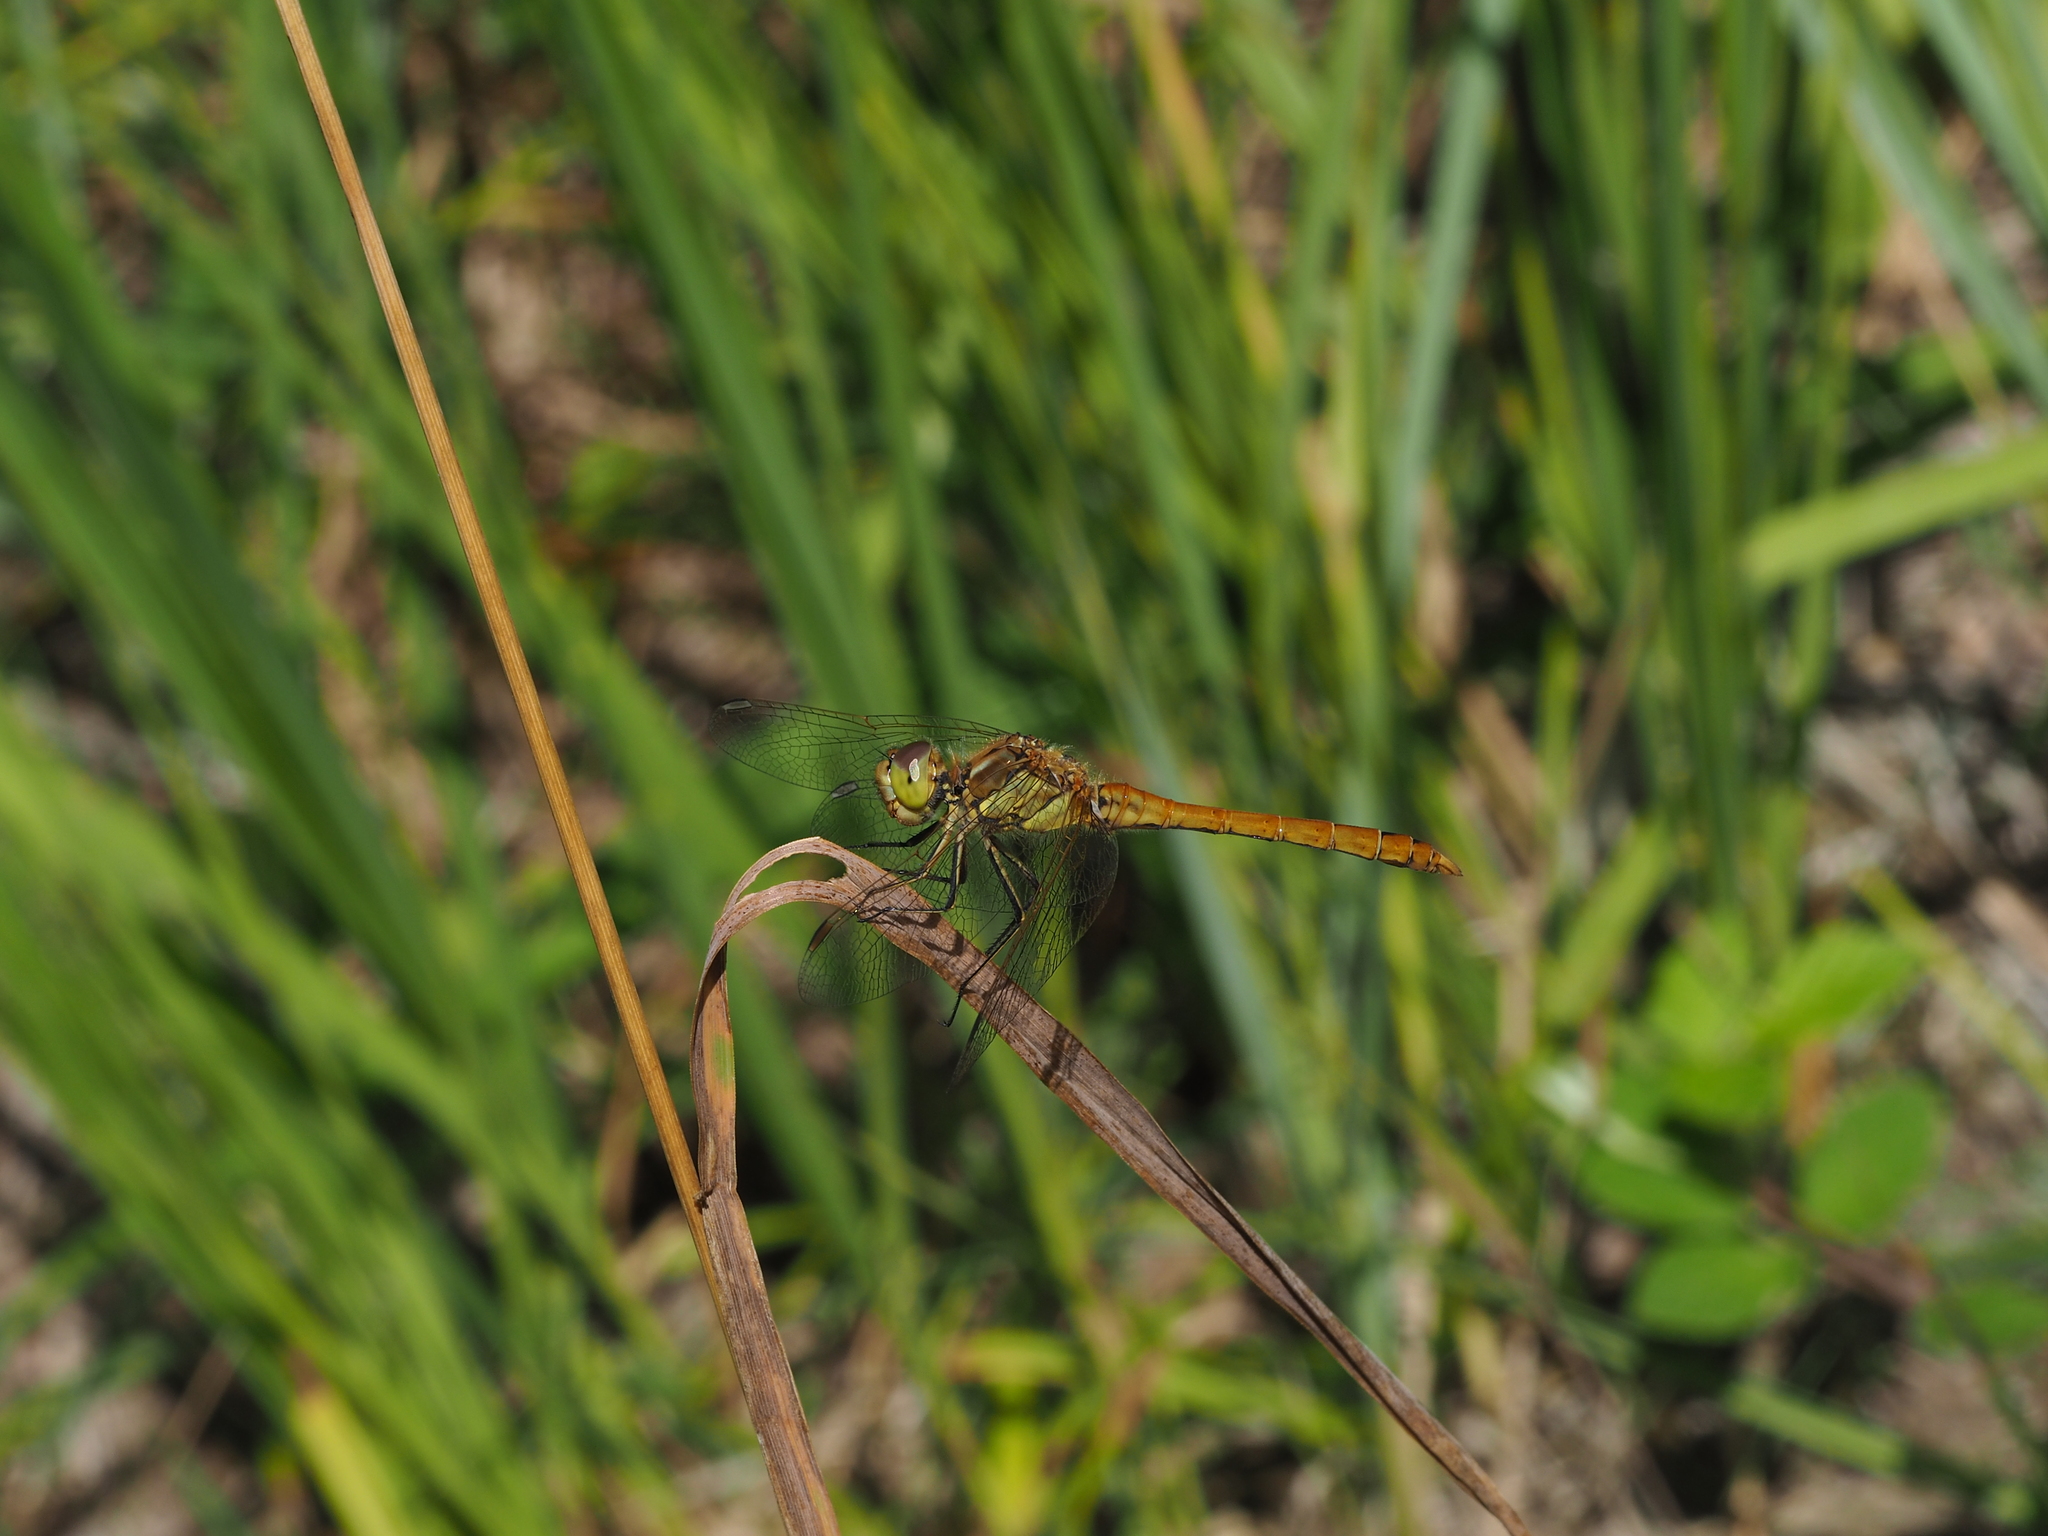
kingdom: Animalia
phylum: Arthropoda
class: Insecta
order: Odonata
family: Libellulidae
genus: Sympetrum
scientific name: Sympetrum striolatum
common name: Common darter
